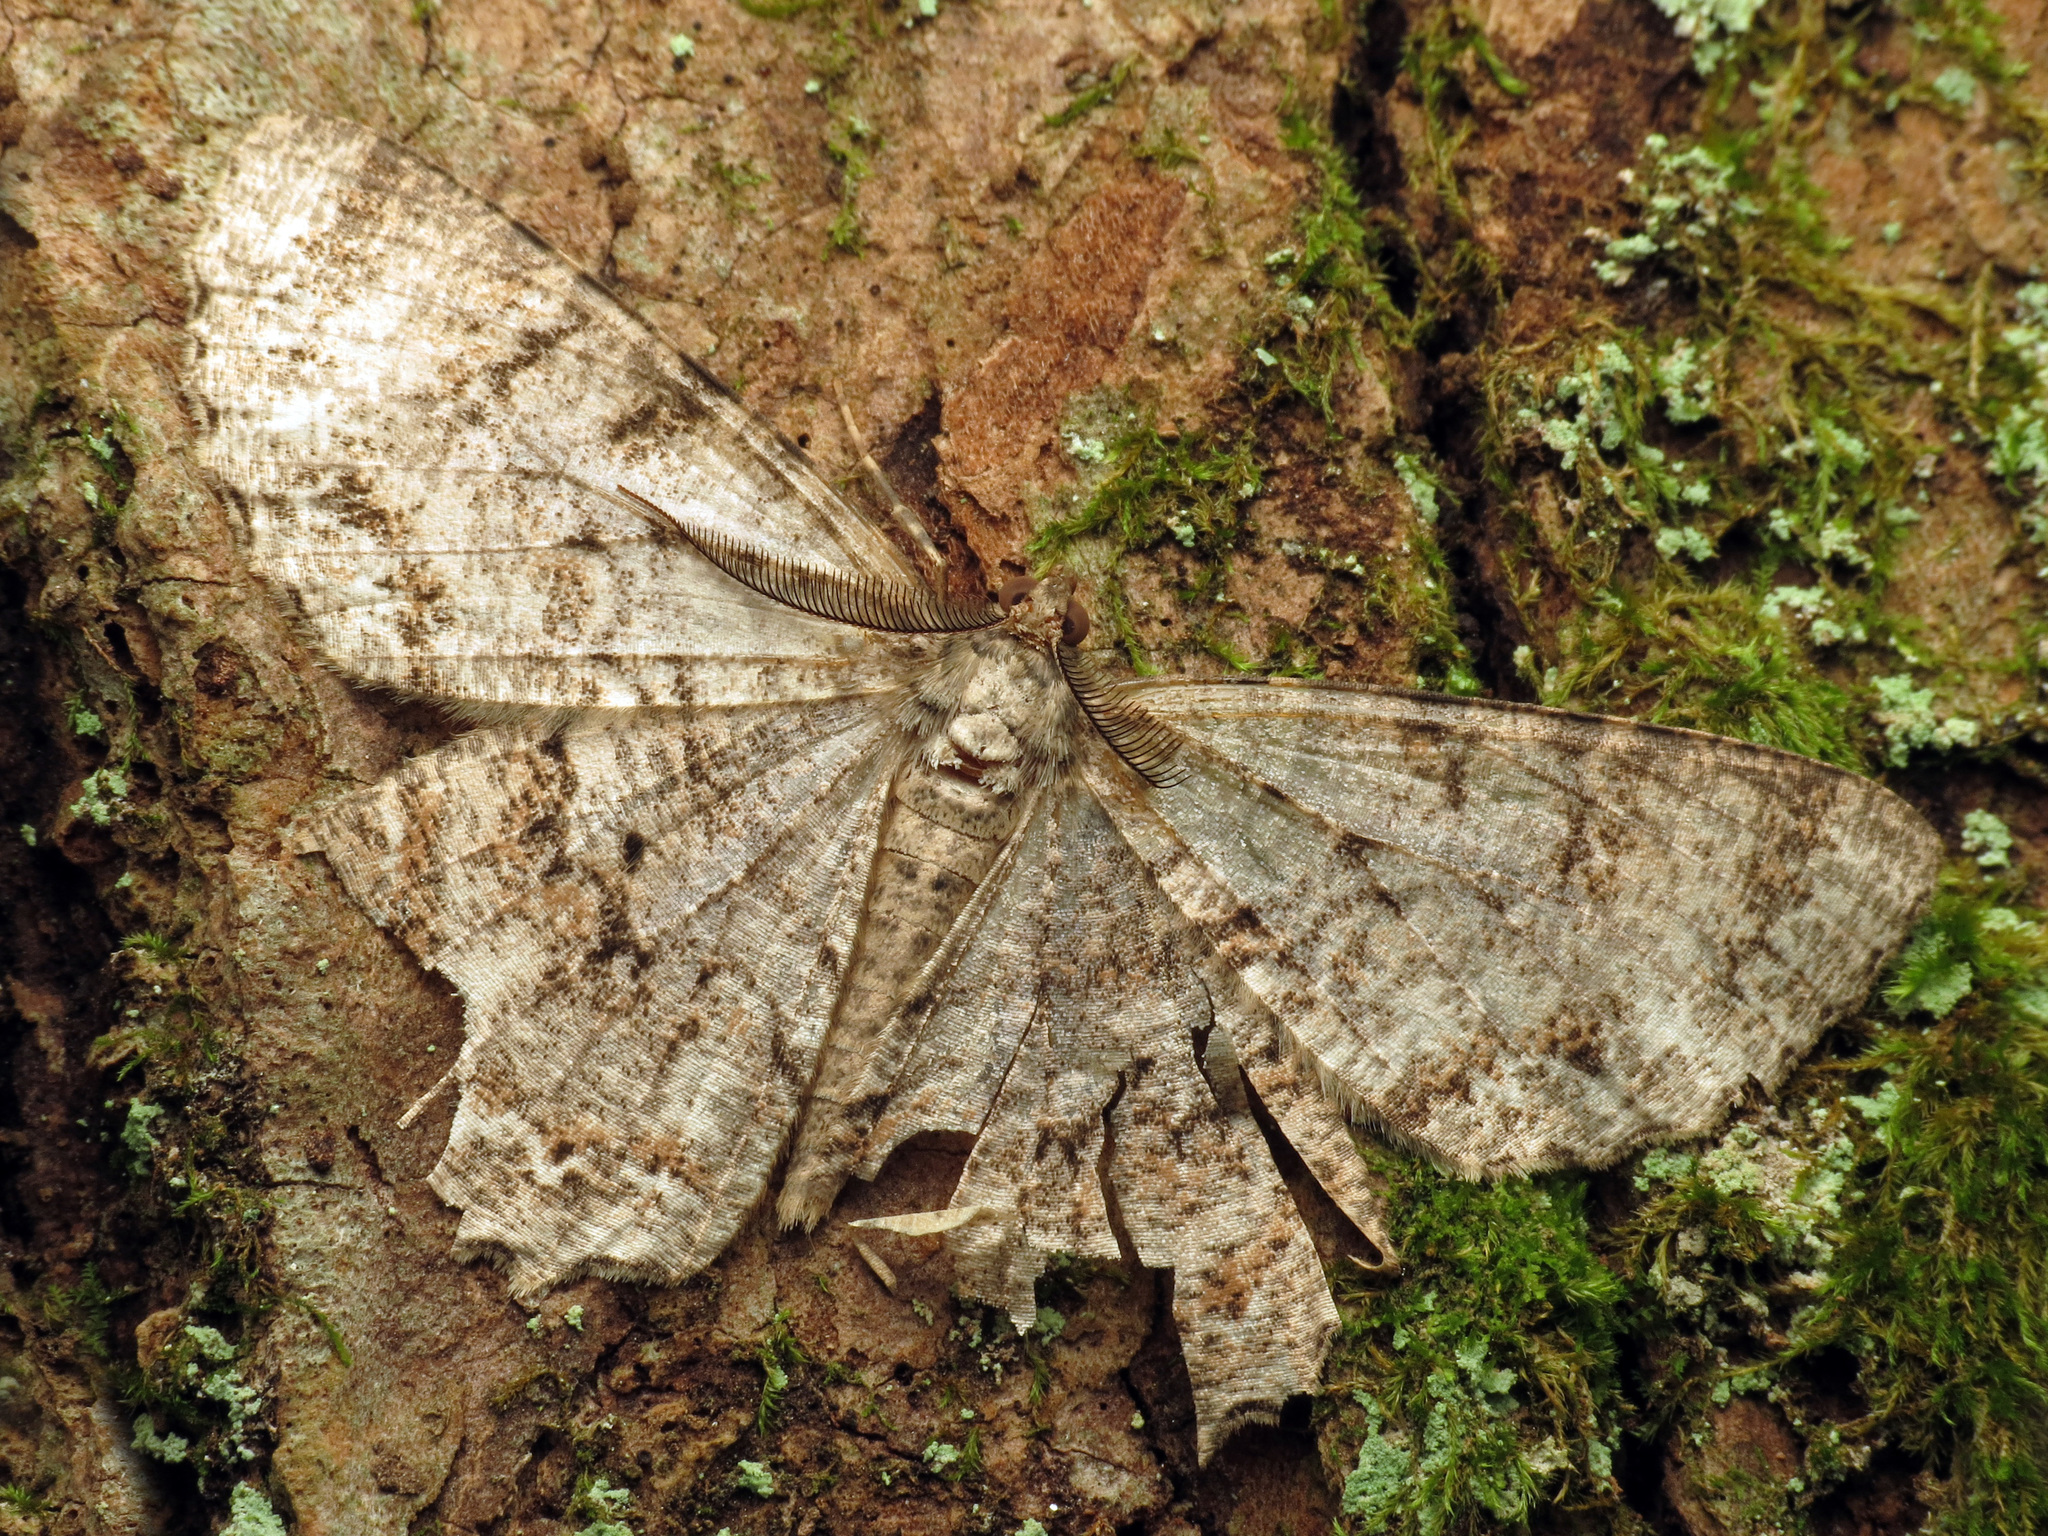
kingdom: Animalia
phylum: Arthropoda
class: Insecta
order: Lepidoptera
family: Geometridae
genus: Epimecis
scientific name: Epimecis hortaria
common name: Tulip-tree beauty
